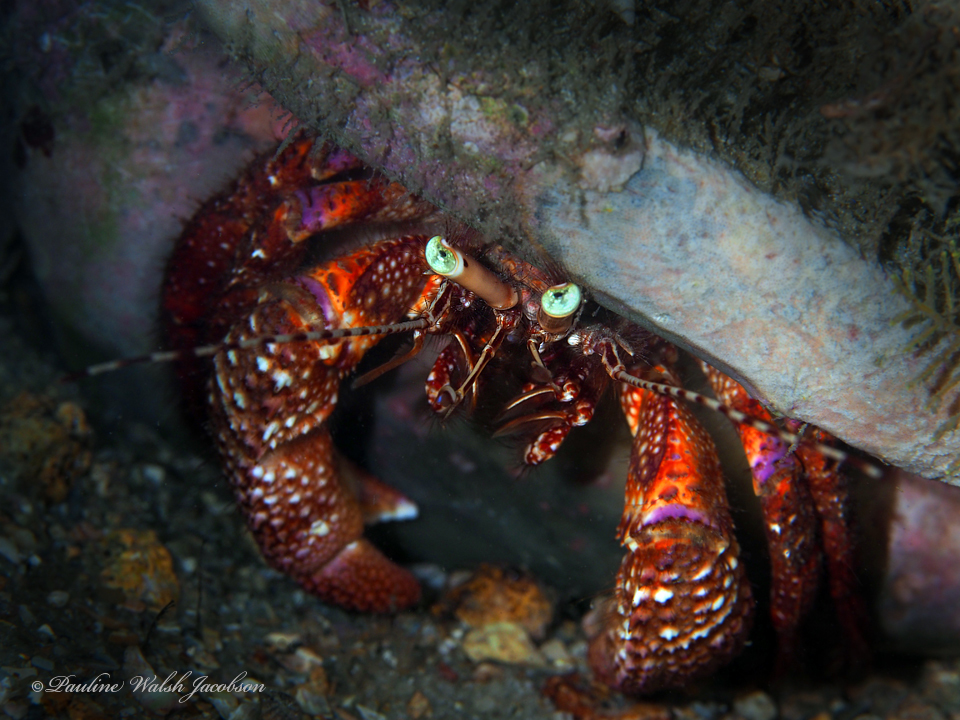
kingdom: Animalia
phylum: Arthropoda
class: Malacostraca
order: Decapoda
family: Diogenidae
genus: Petrochirus
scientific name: Petrochirus diogenes
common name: Giant hermit crab
